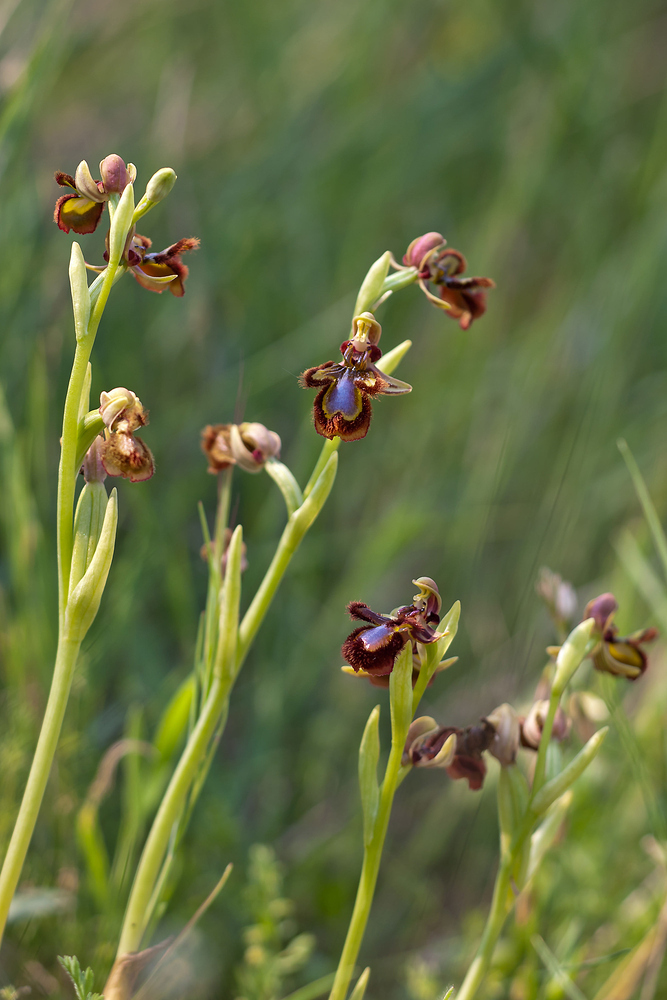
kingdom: Plantae
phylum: Tracheophyta
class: Liliopsida
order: Asparagales
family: Orchidaceae
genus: Ophrys
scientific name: Ophrys speculum
